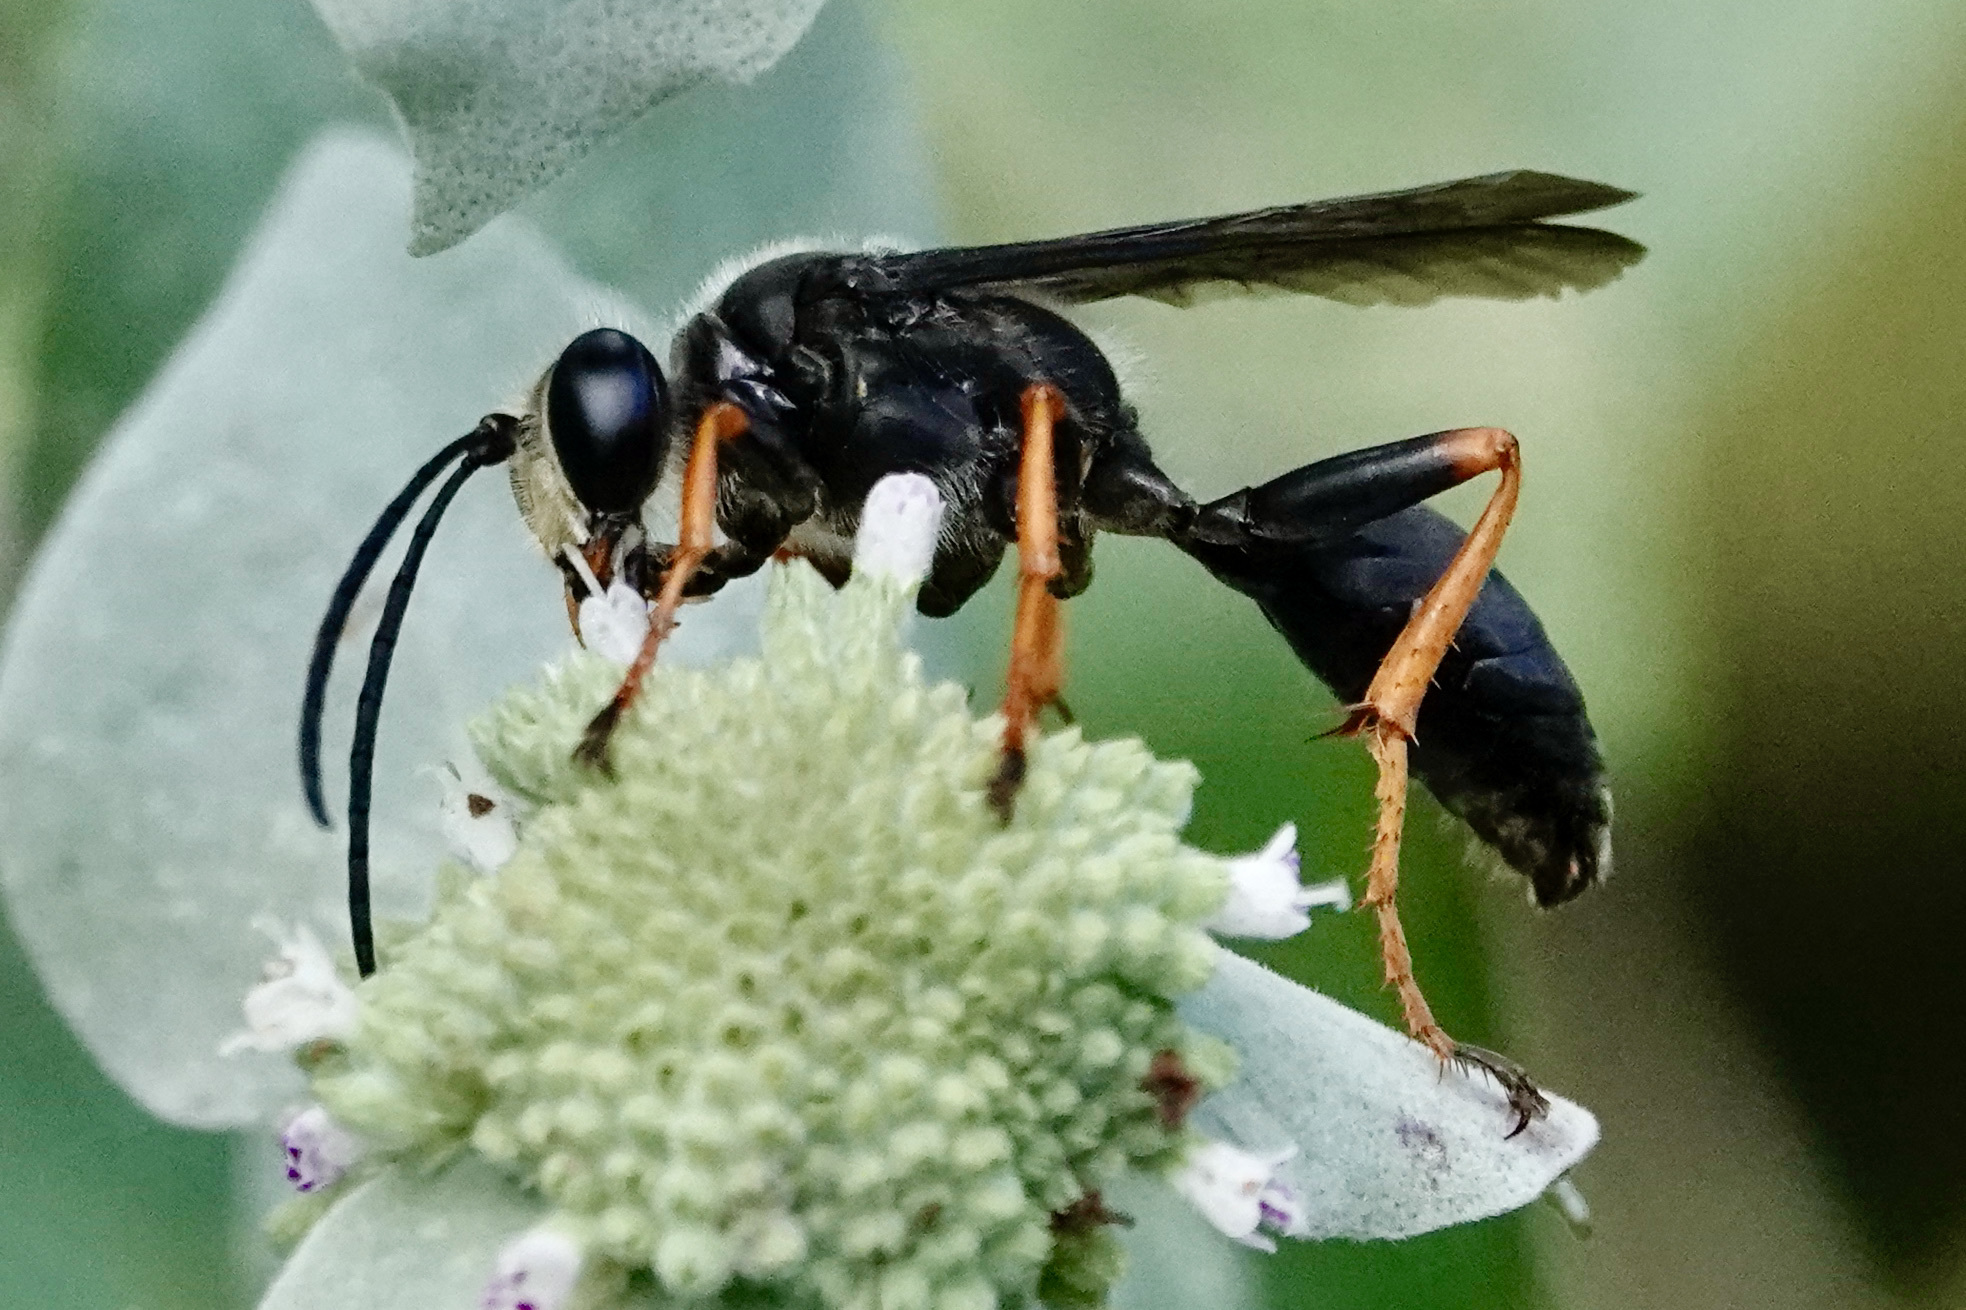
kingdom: Animalia
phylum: Arthropoda
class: Insecta
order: Hymenoptera
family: Sphecidae
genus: Sphex
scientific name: Sphex nudus
